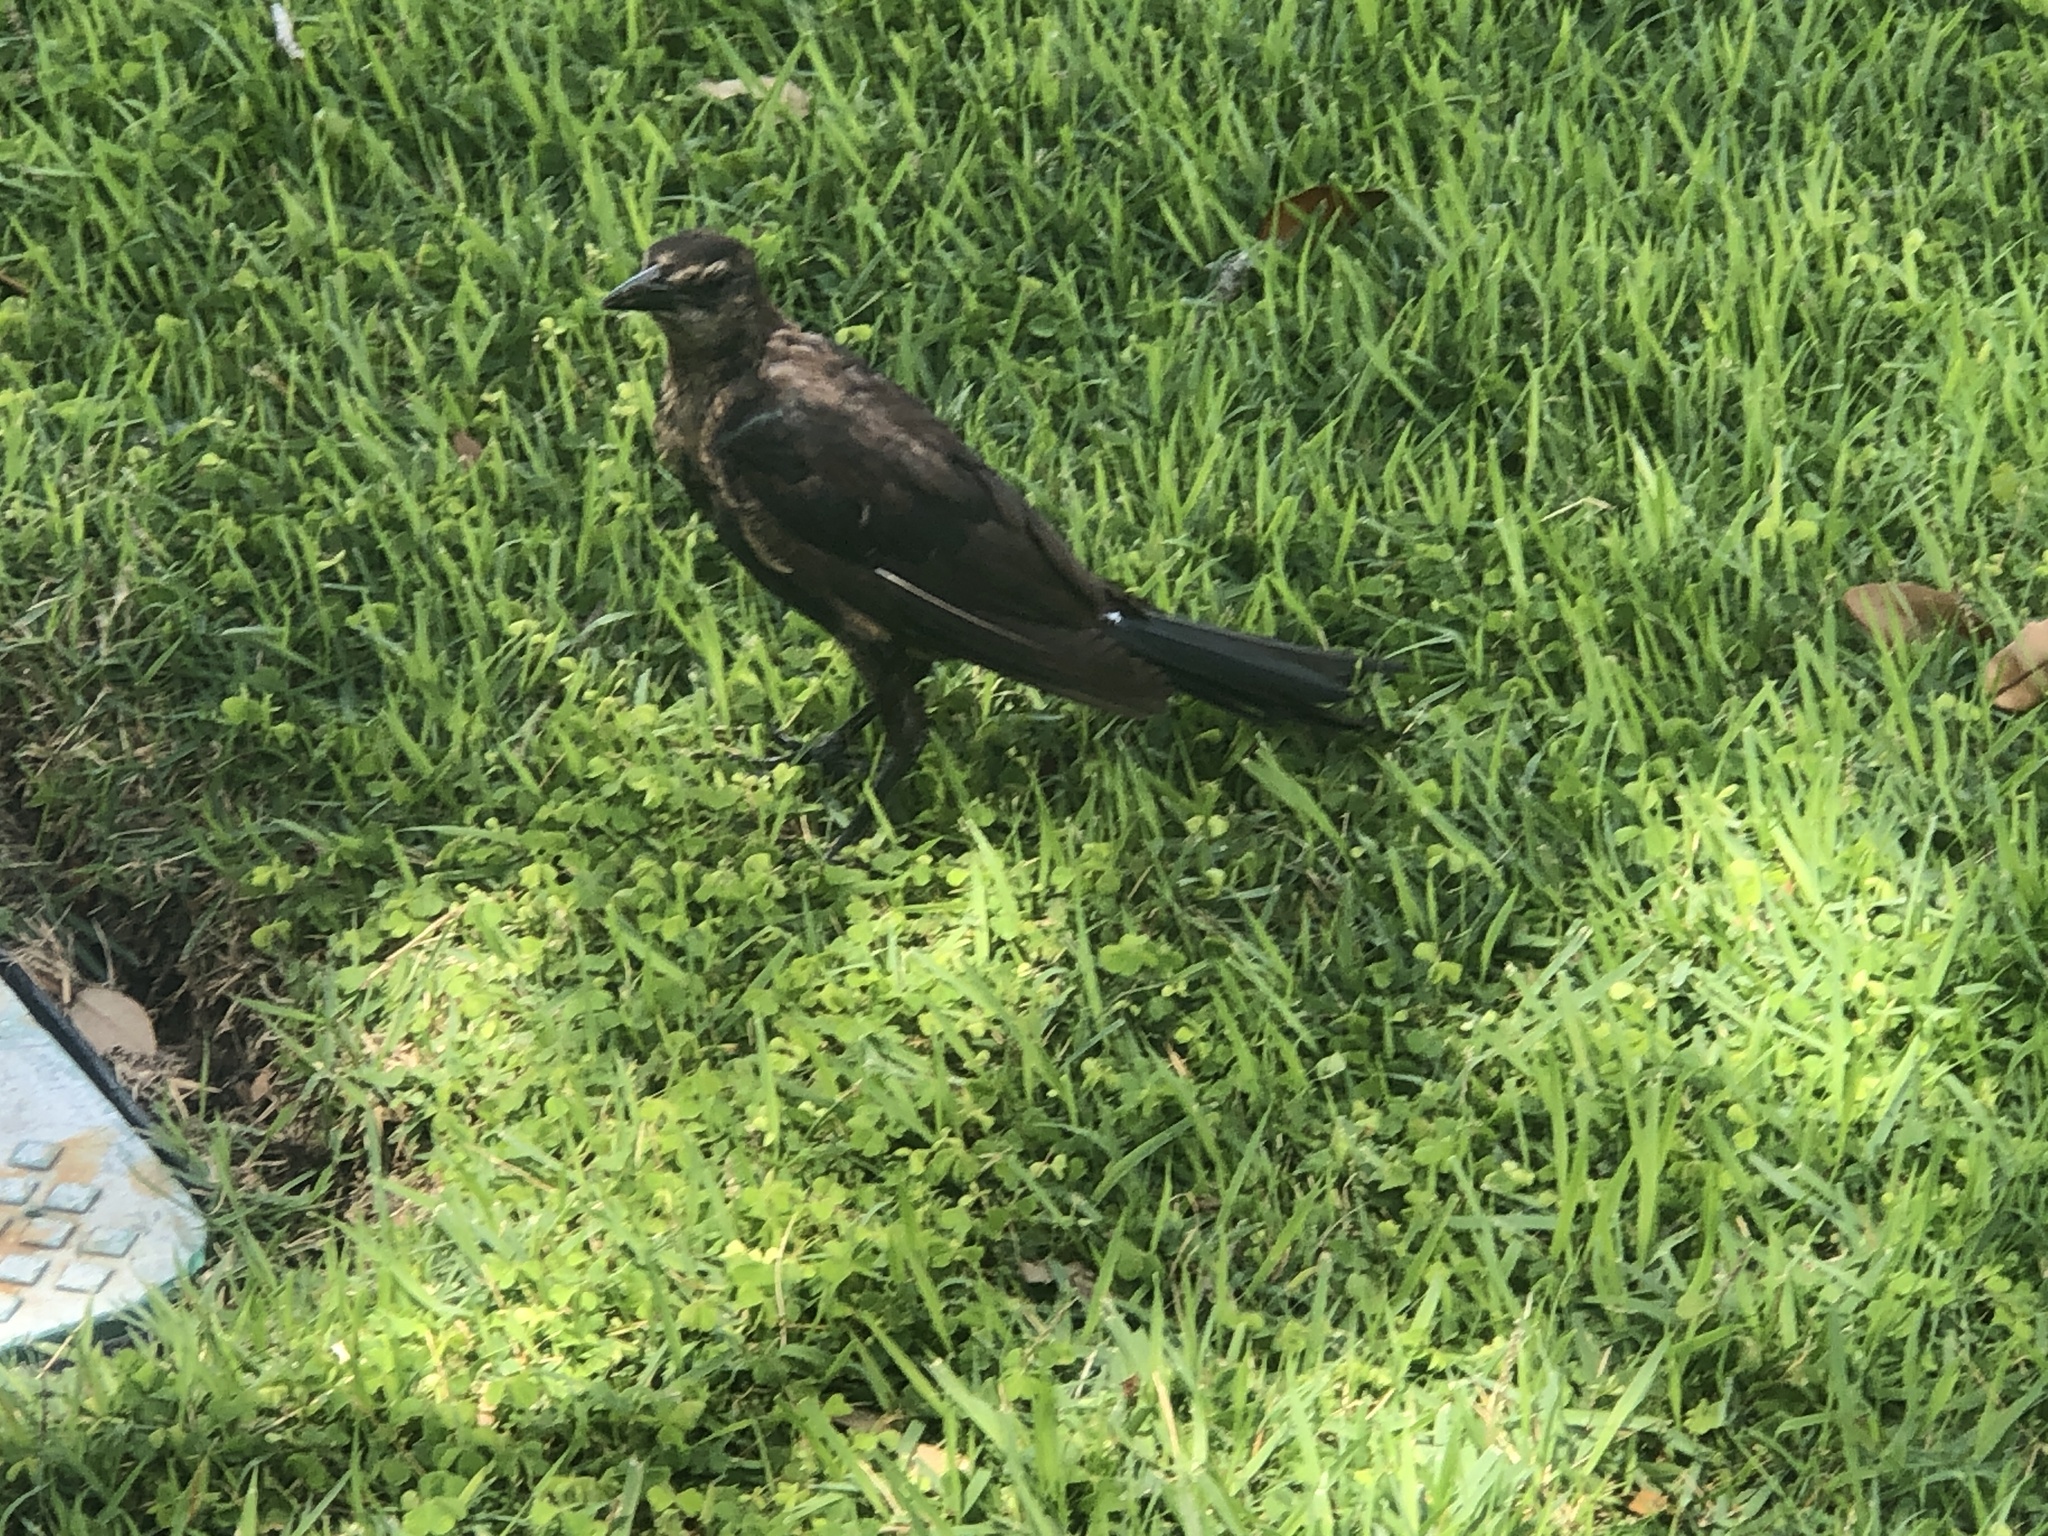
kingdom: Animalia
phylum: Chordata
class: Aves
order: Passeriformes
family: Icteridae
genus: Quiscalus
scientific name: Quiscalus major
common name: Boat-tailed grackle
